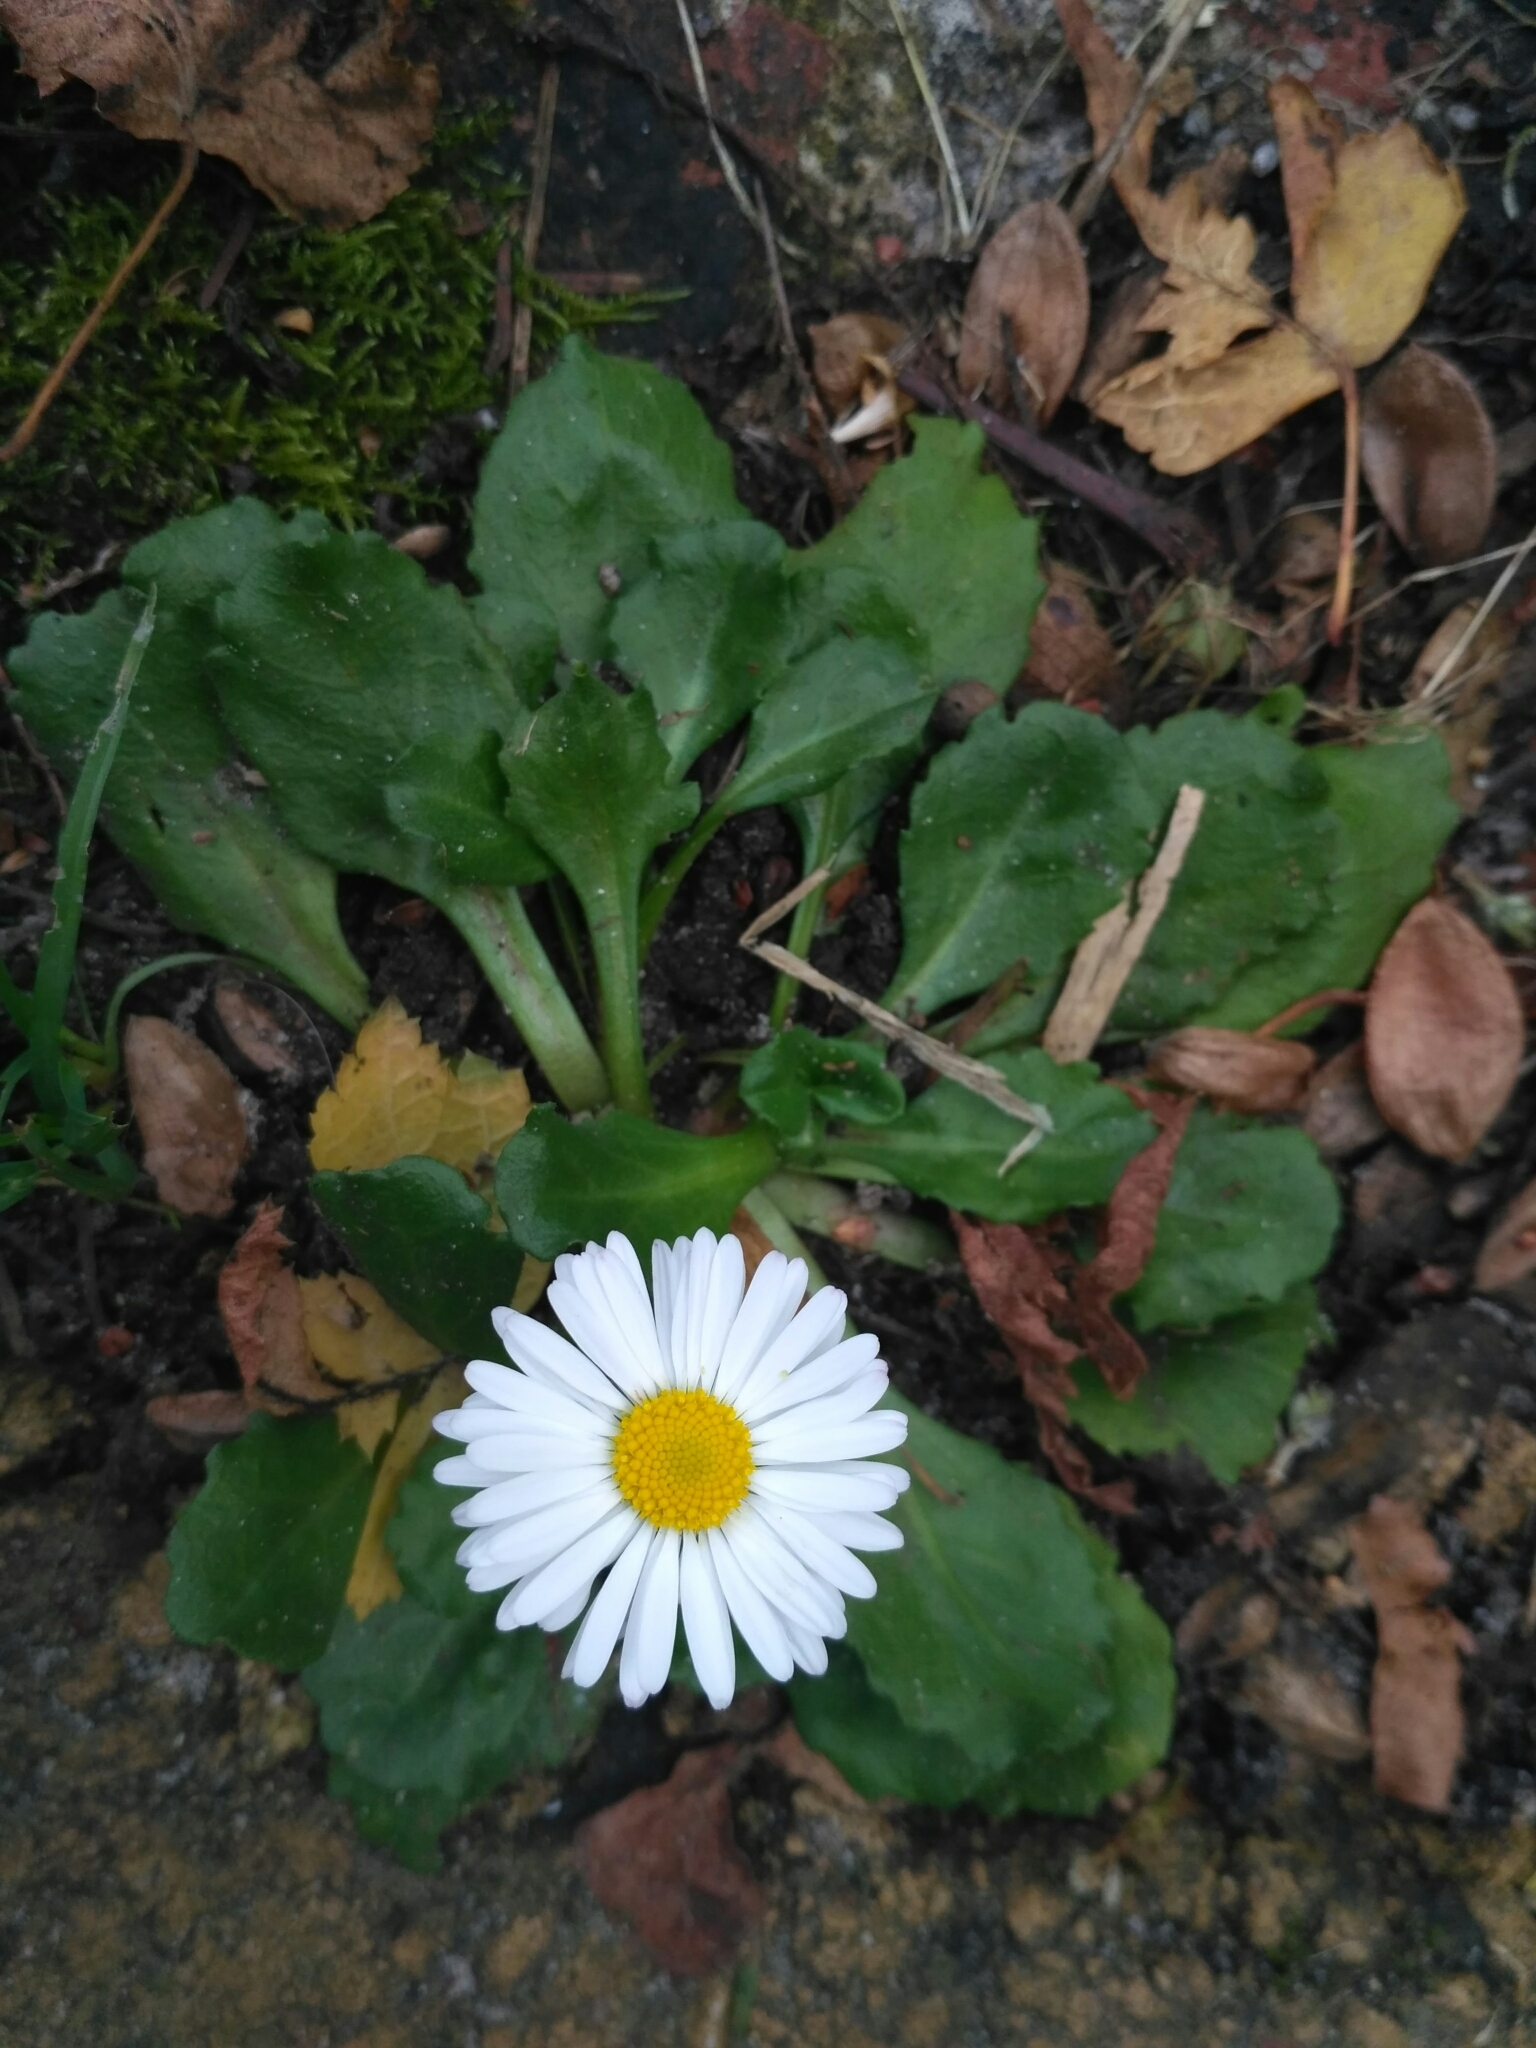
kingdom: Plantae
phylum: Tracheophyta
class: Magnoliopsida
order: Asterales
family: Asteraceae
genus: Bellis
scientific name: Bellis perennis
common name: Lawndaisy
